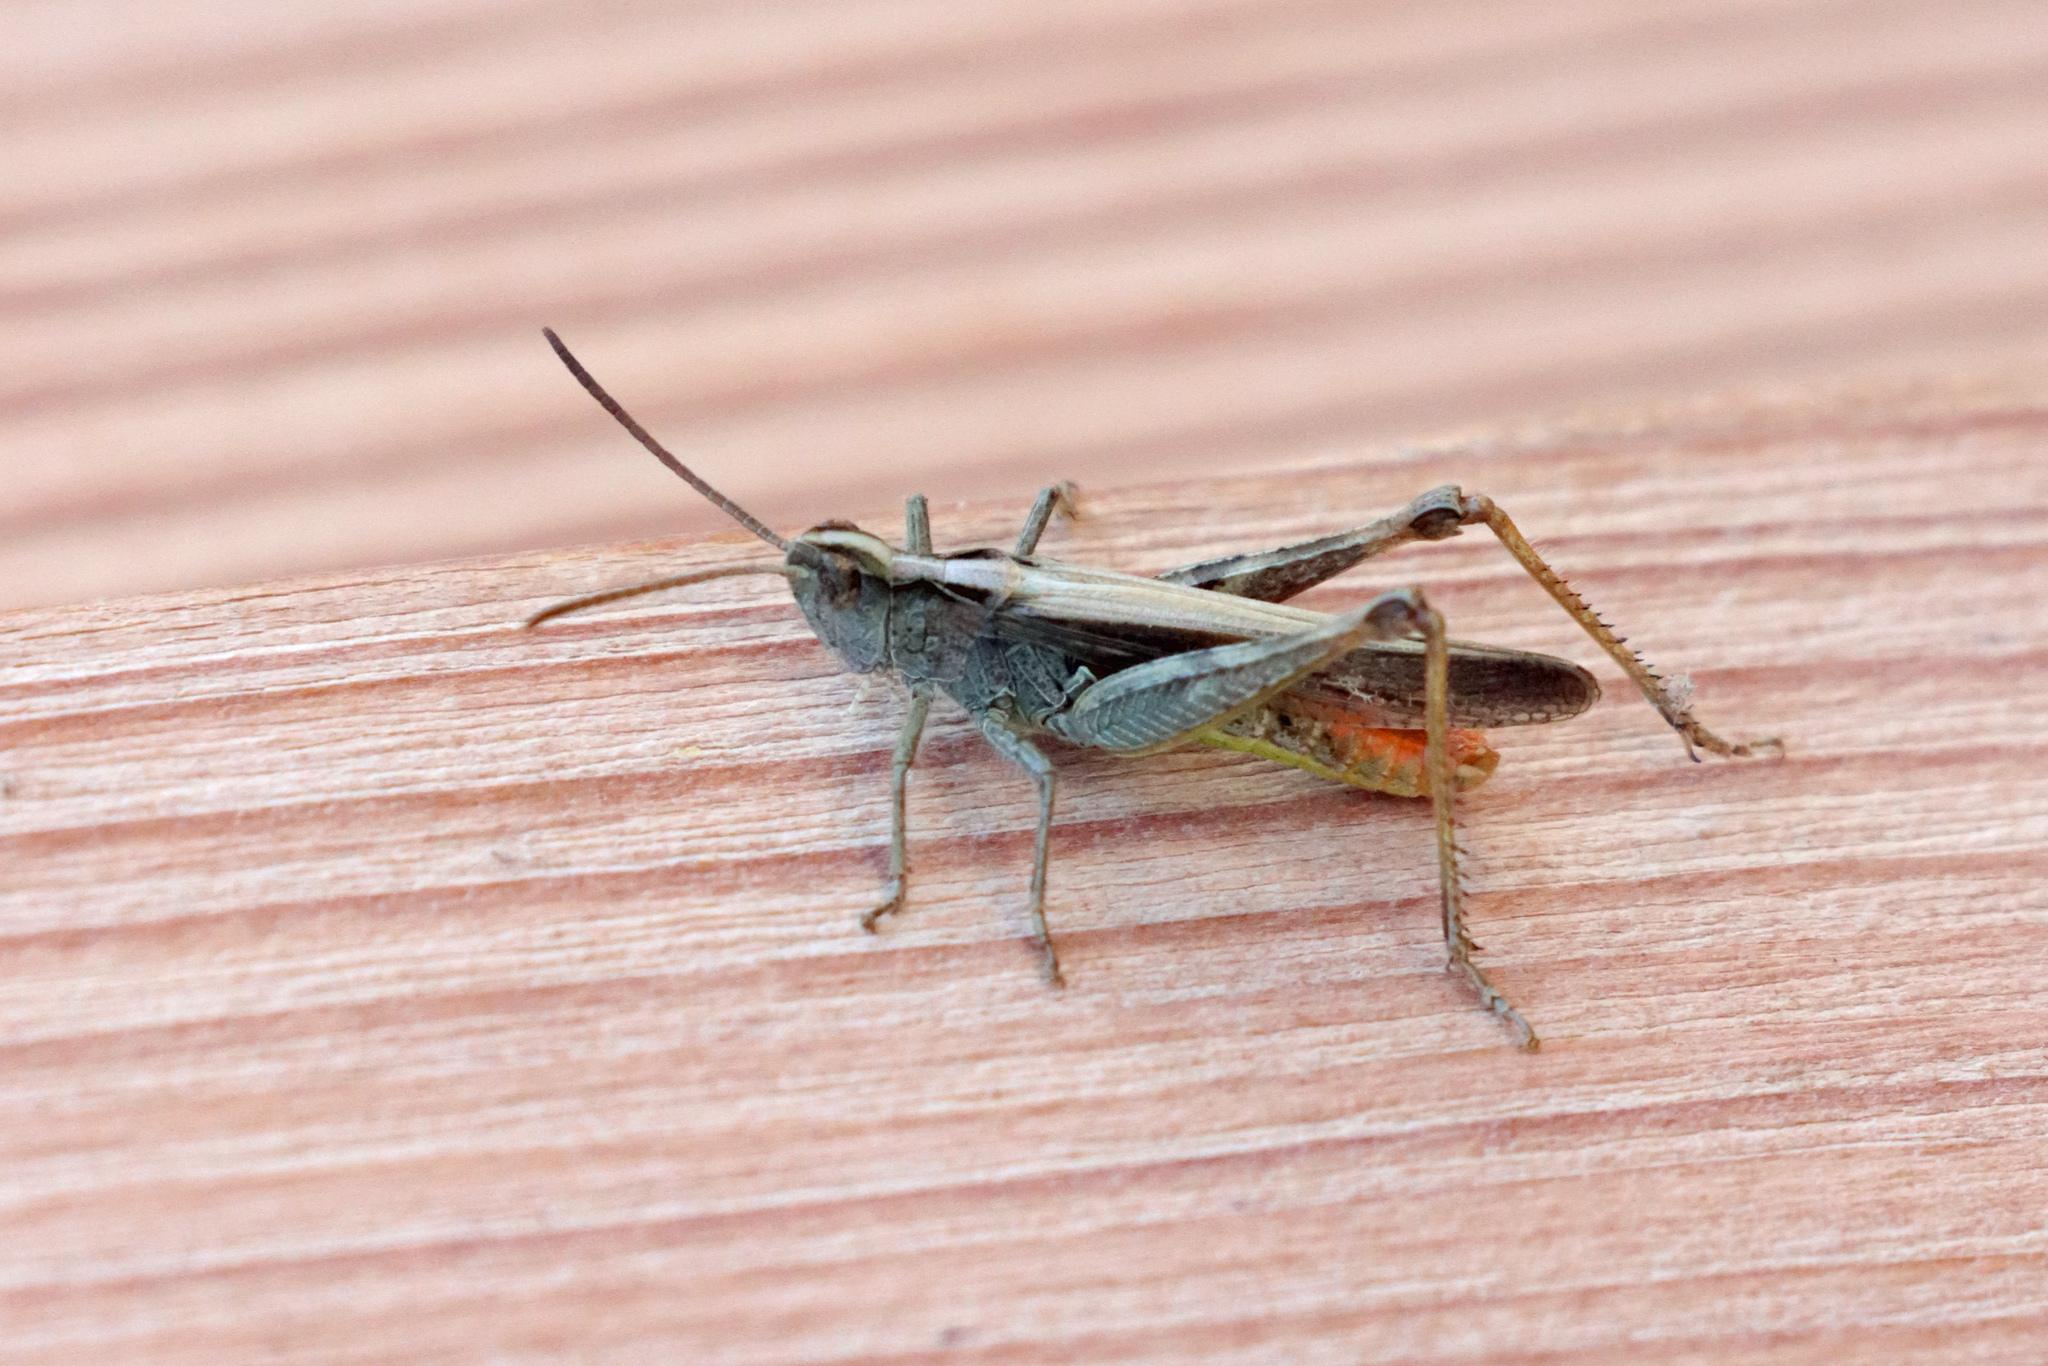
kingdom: Animalia
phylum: Arthropoda
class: Insecta
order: Orthoptera
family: Acrididae
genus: Chorthippus
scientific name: Chorthippus brunneus
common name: Field grasshopper
